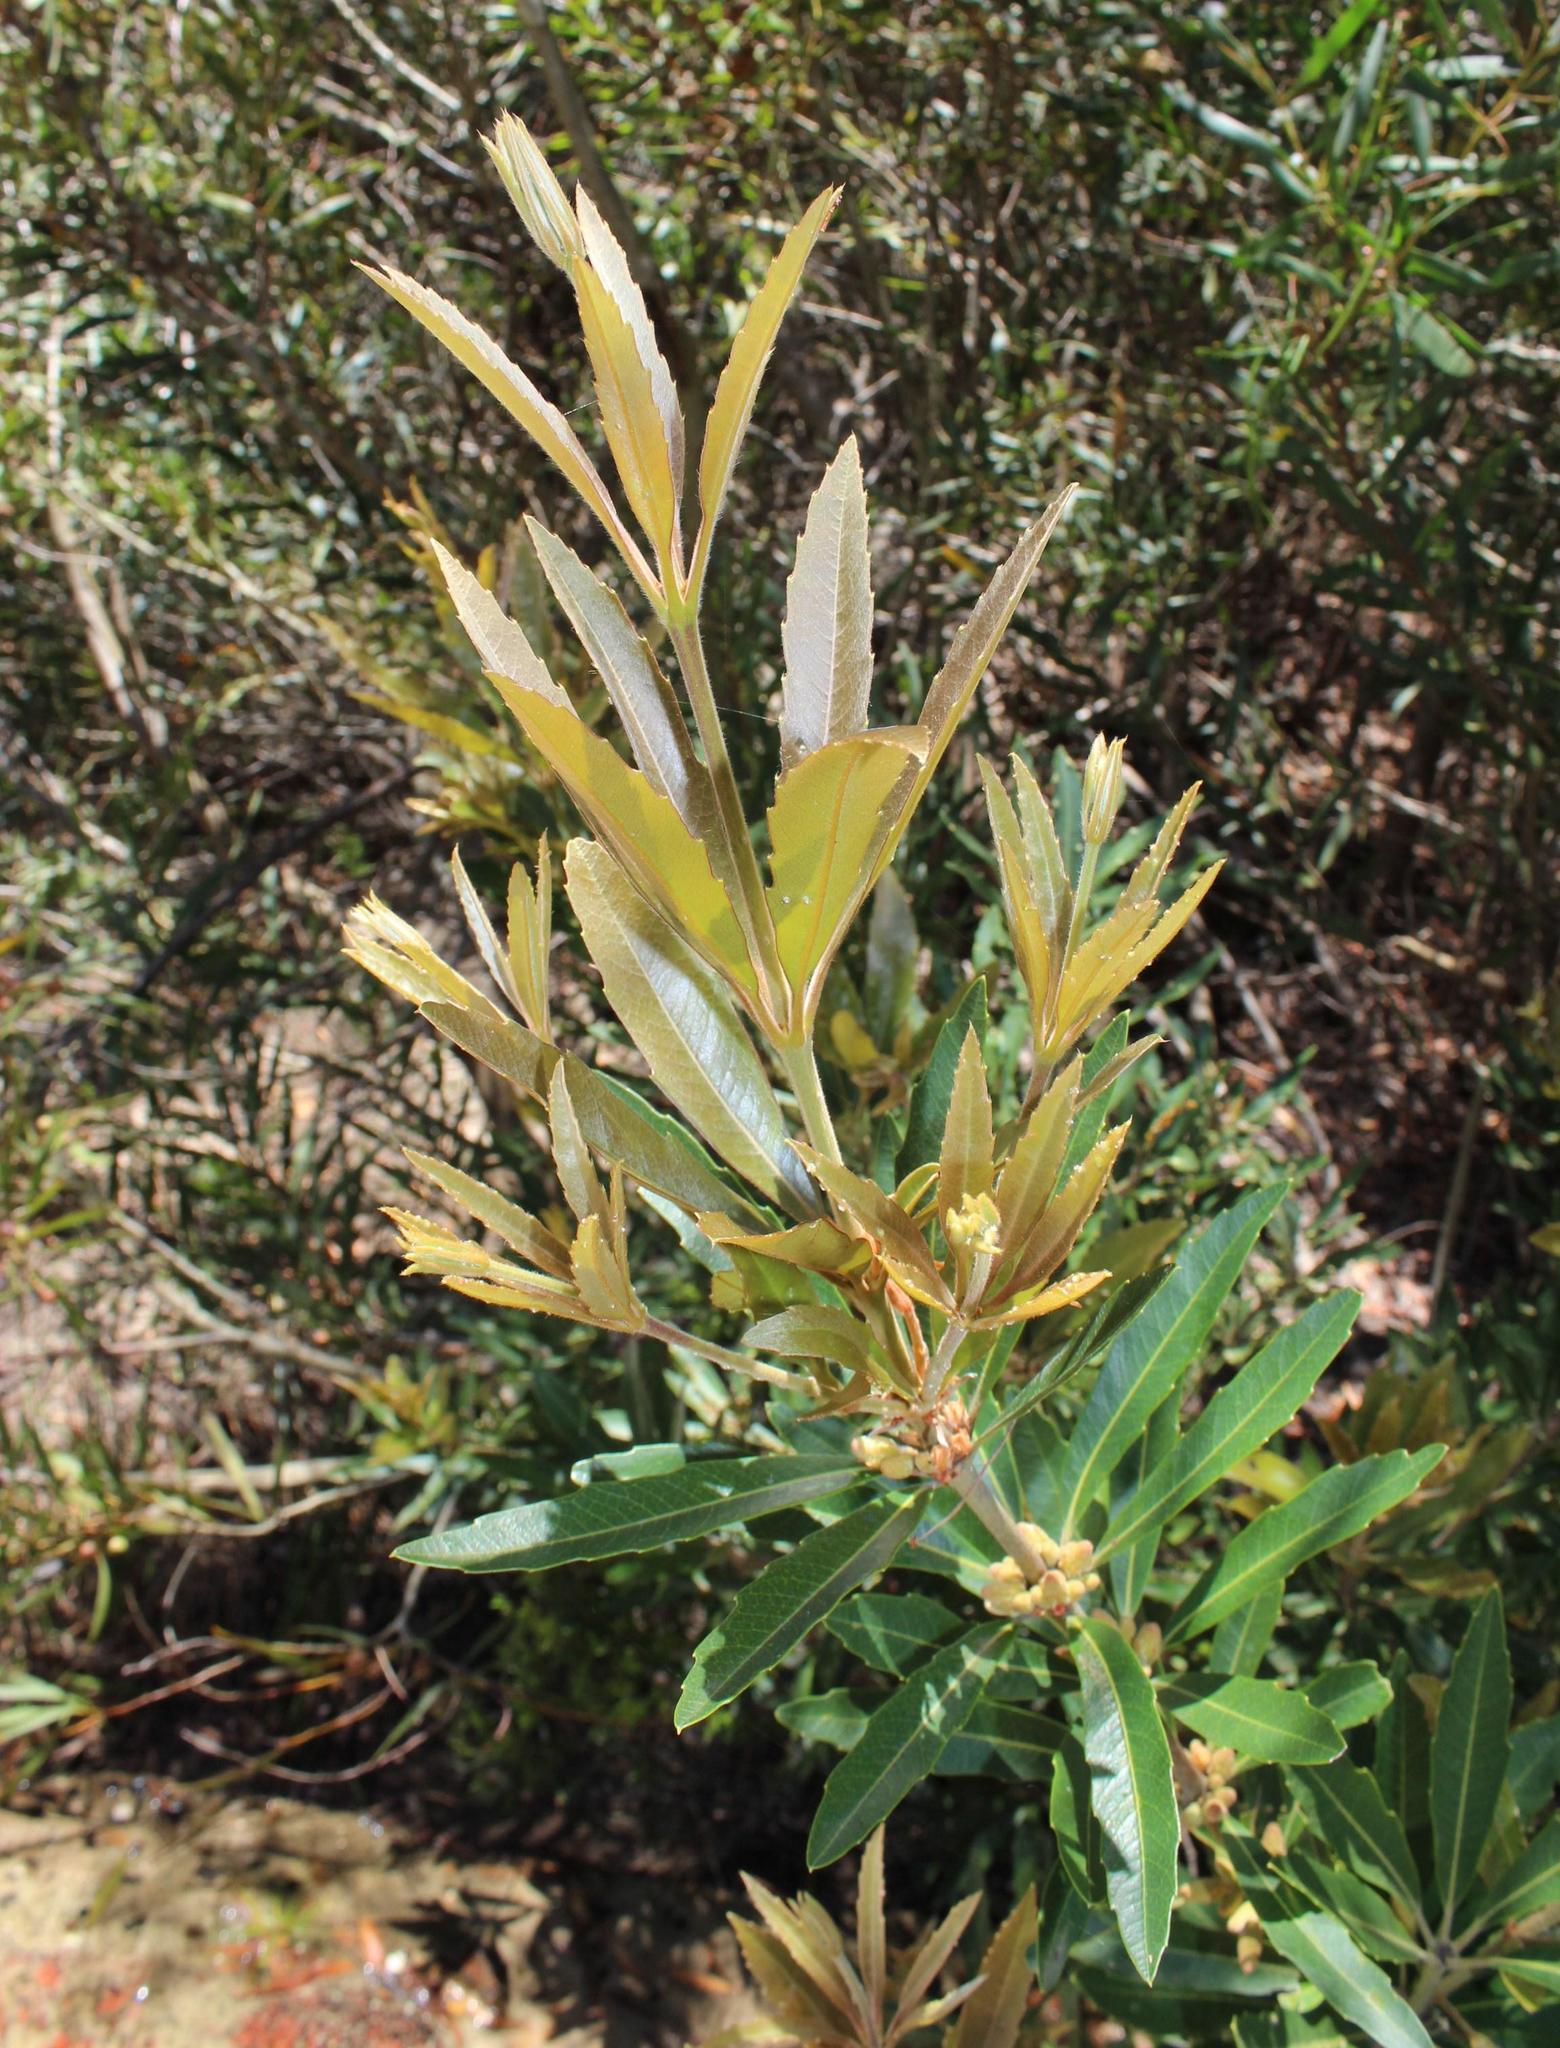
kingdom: Plantae
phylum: Tracheophyta
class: Magnoliopsida
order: Proteales
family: Proteaceae
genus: Brabejum
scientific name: Brabejum stellatifolium
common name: Wild almond
